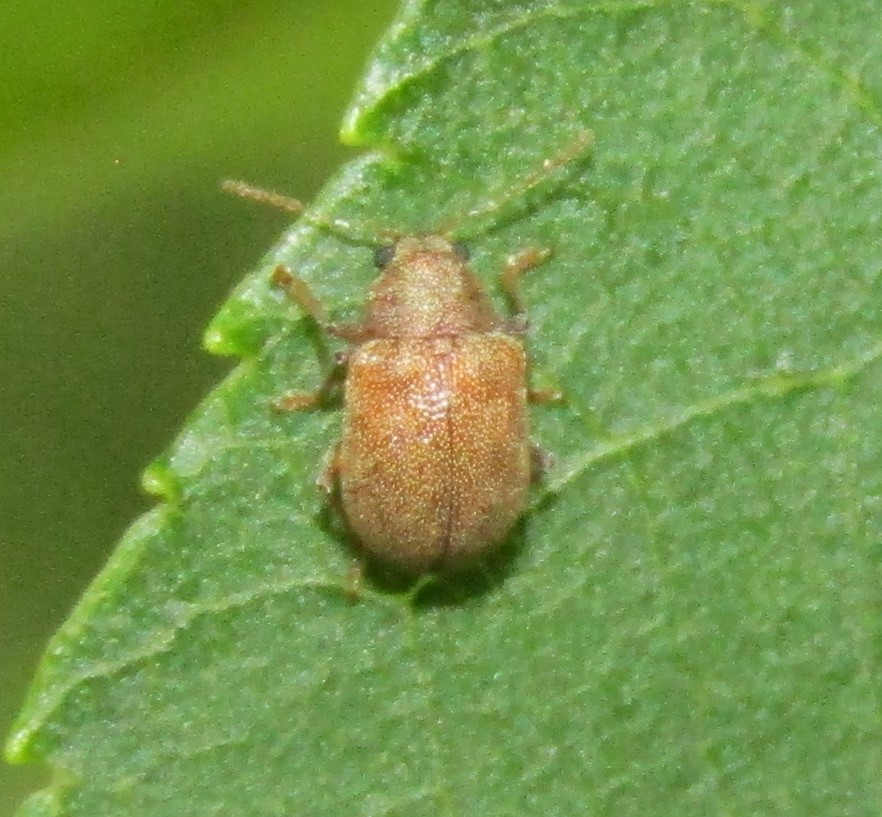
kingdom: Animalia
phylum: Arthropoda
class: Insecta
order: Coleoptera
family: Chrysomelidae
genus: Demotina
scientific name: Demotina modesta
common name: Leaf beetle
